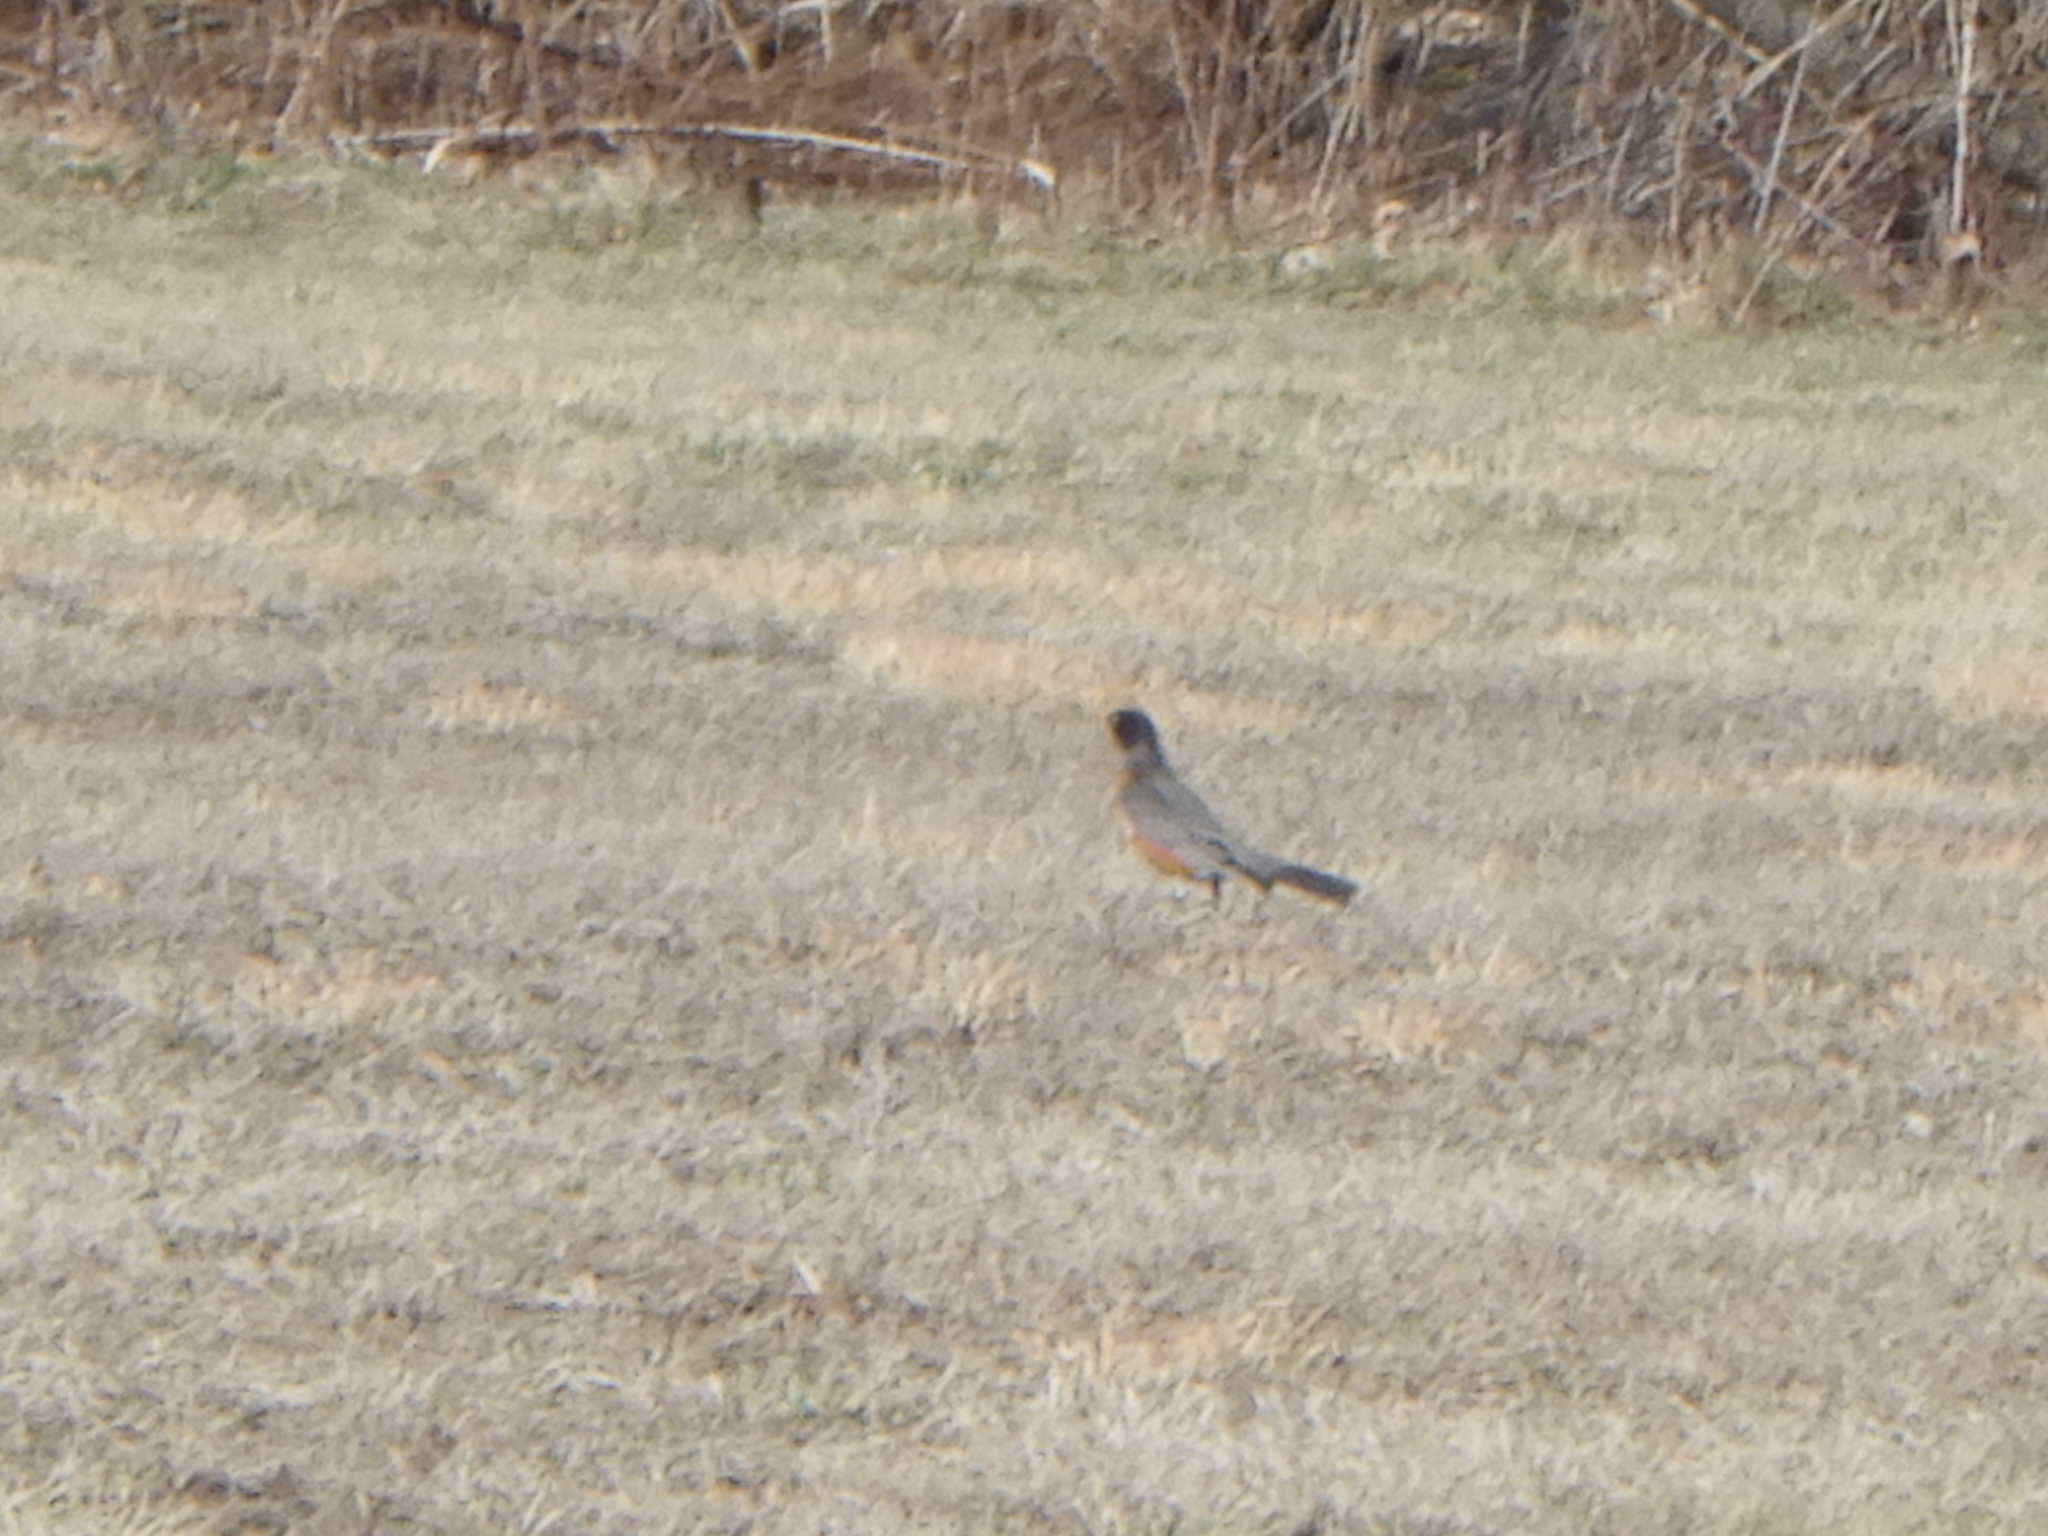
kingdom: Animalia
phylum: Chordata
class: Aves
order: Passeriformes
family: Turdidae
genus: Turdus
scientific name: Turdus migratorius
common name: American robin
